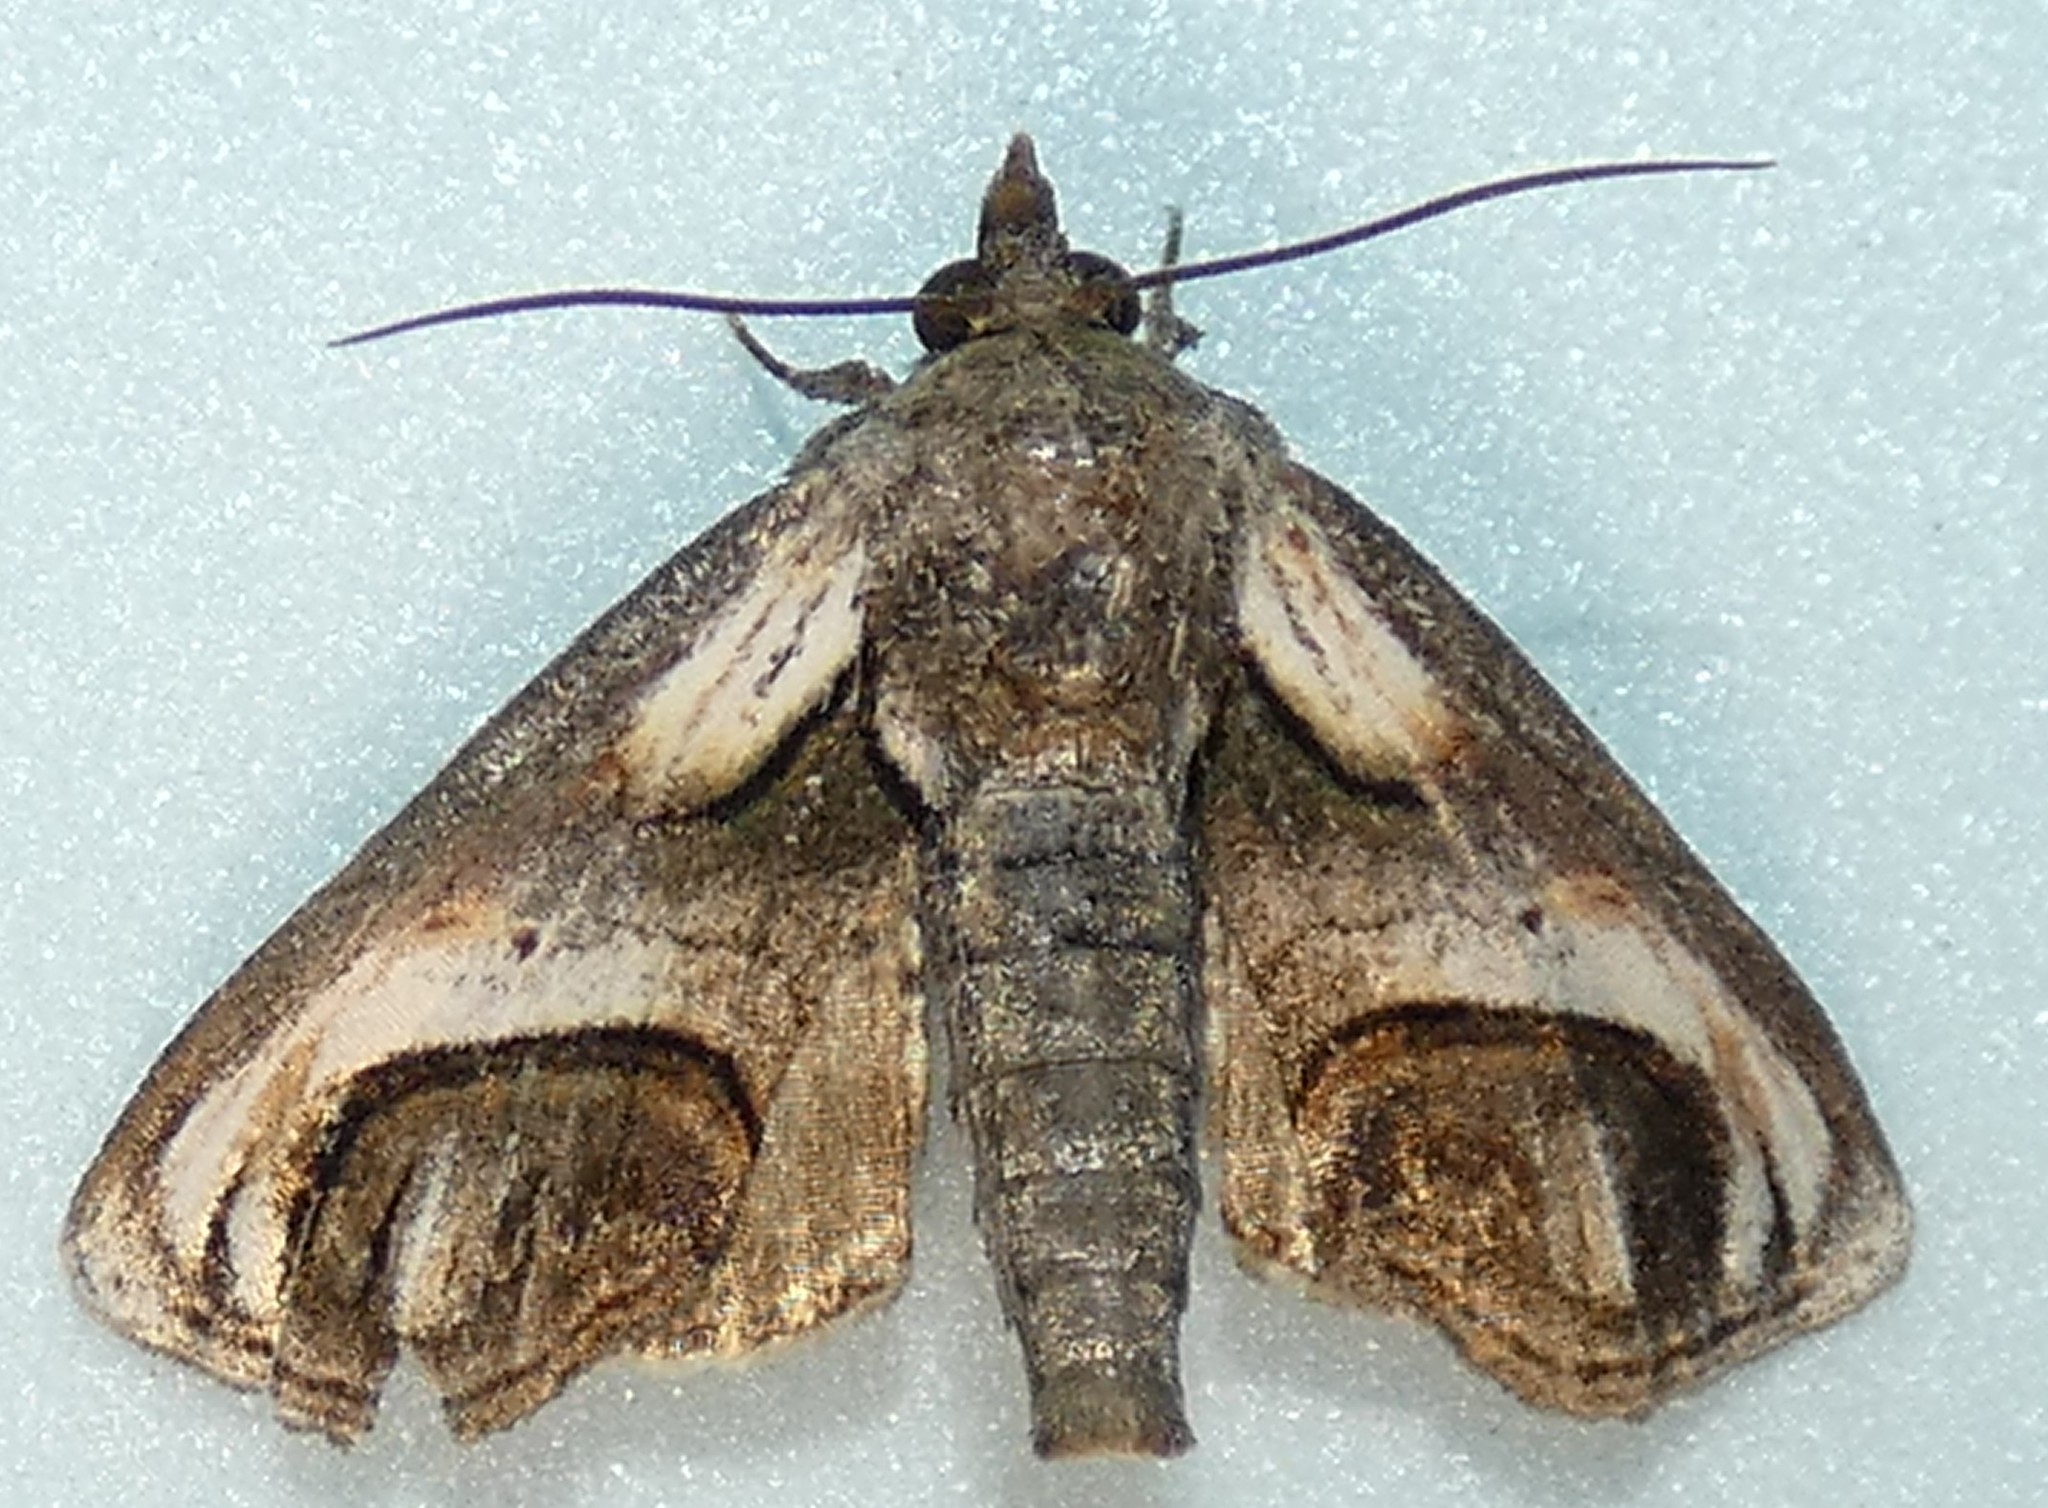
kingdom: Animalia
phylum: Arthropoda
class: Insecta
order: Lepidoptera
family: Euteliidae
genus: Paectes
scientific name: Paectes oculatrix
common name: Eyed paectes moth
